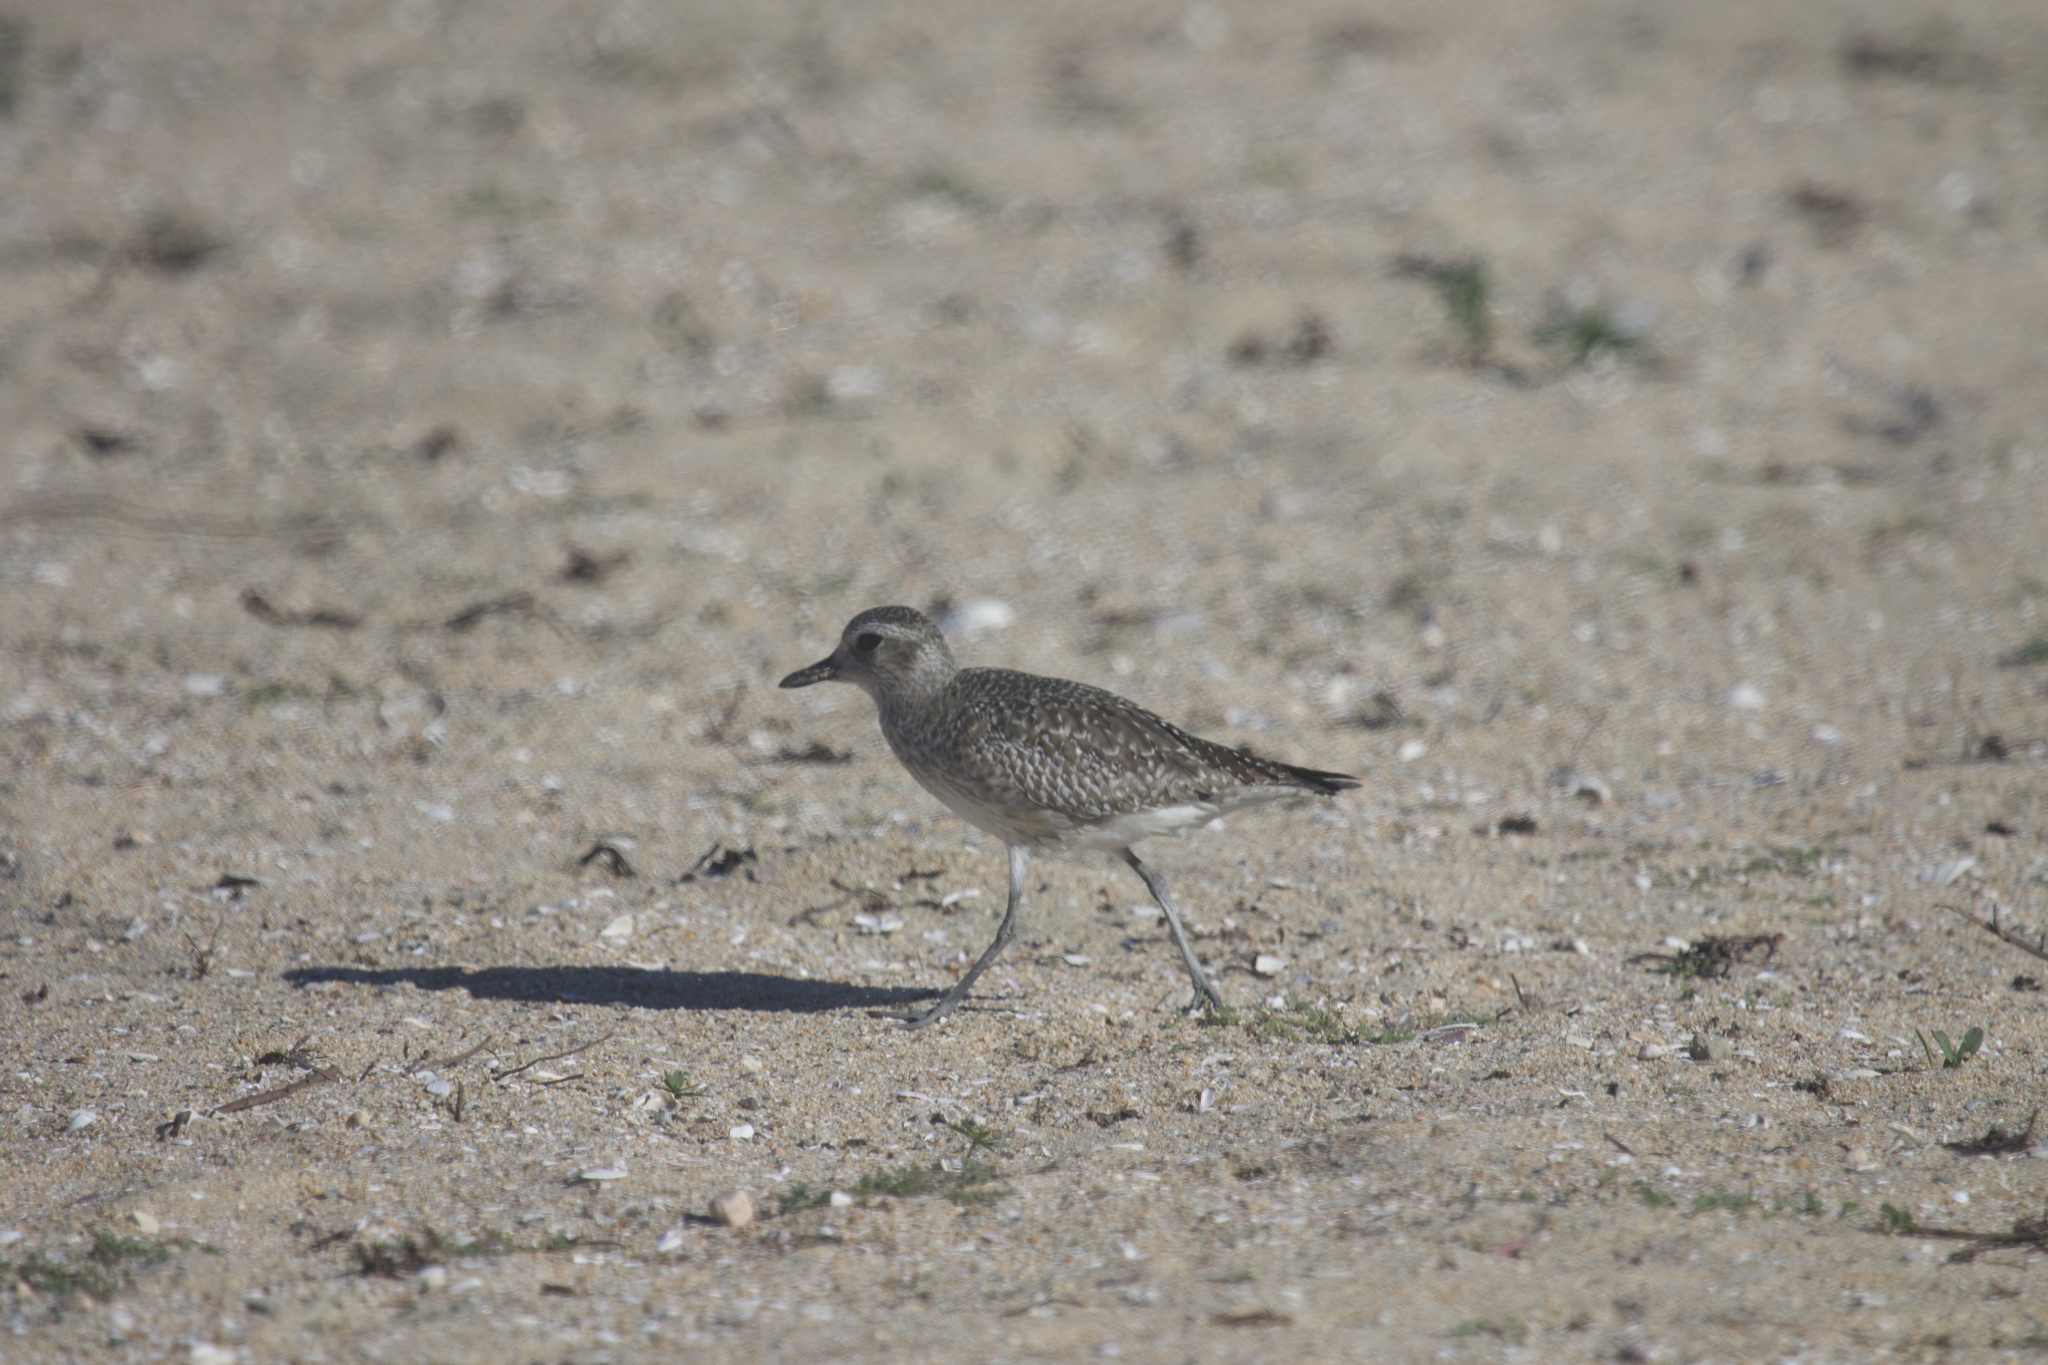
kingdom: Animalia
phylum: Chordata
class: Aves
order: Charadriiformes
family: Charadriidae
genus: Pluvialis
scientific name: Pluvialis squatarola
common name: Grey plover
